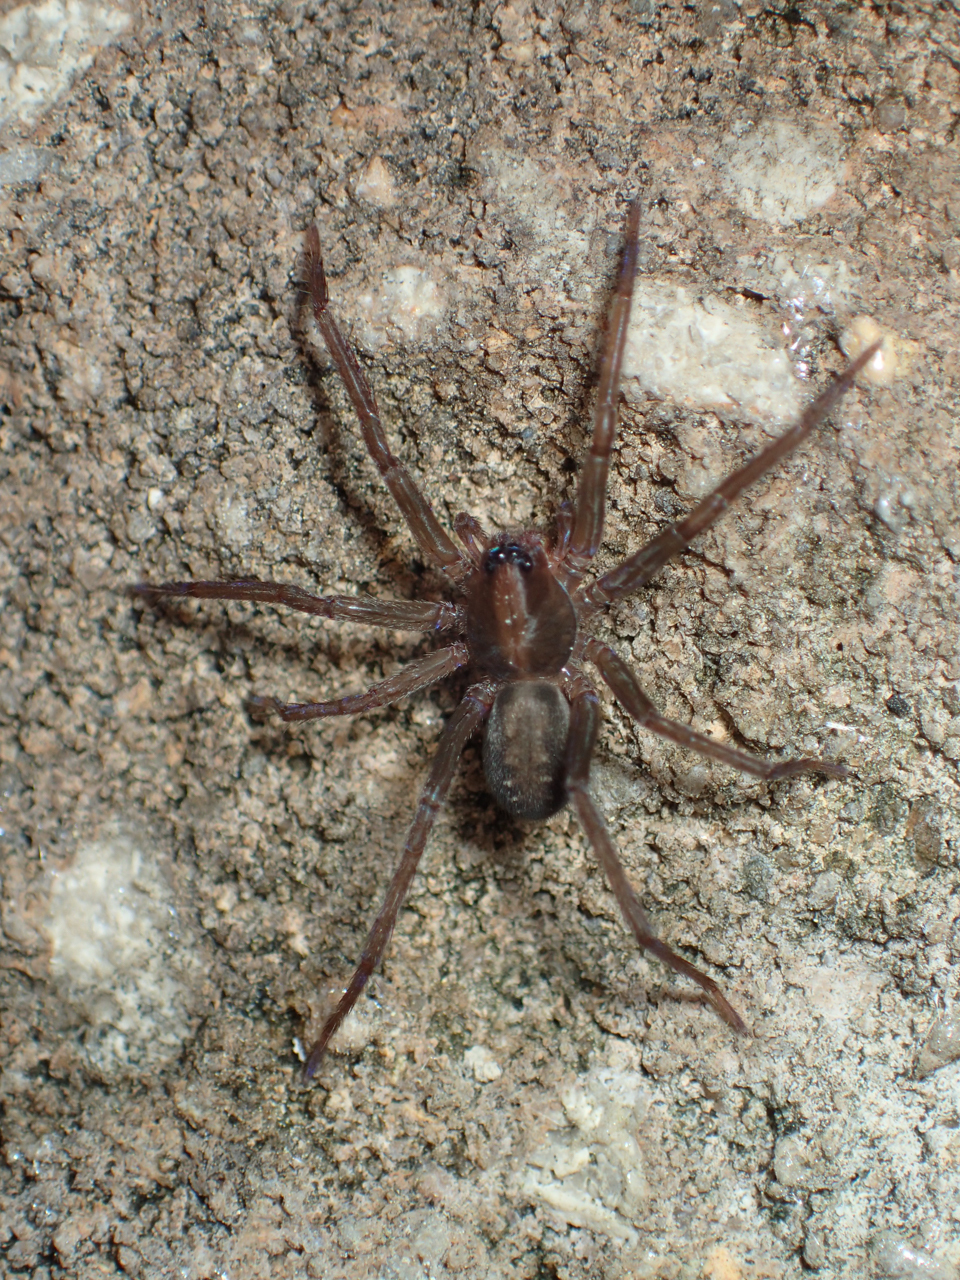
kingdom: Animalia
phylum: Arthropoda
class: Arachnida
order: Araneae
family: Ctenidae
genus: Ctenus
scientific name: Ctenus hibernalis
